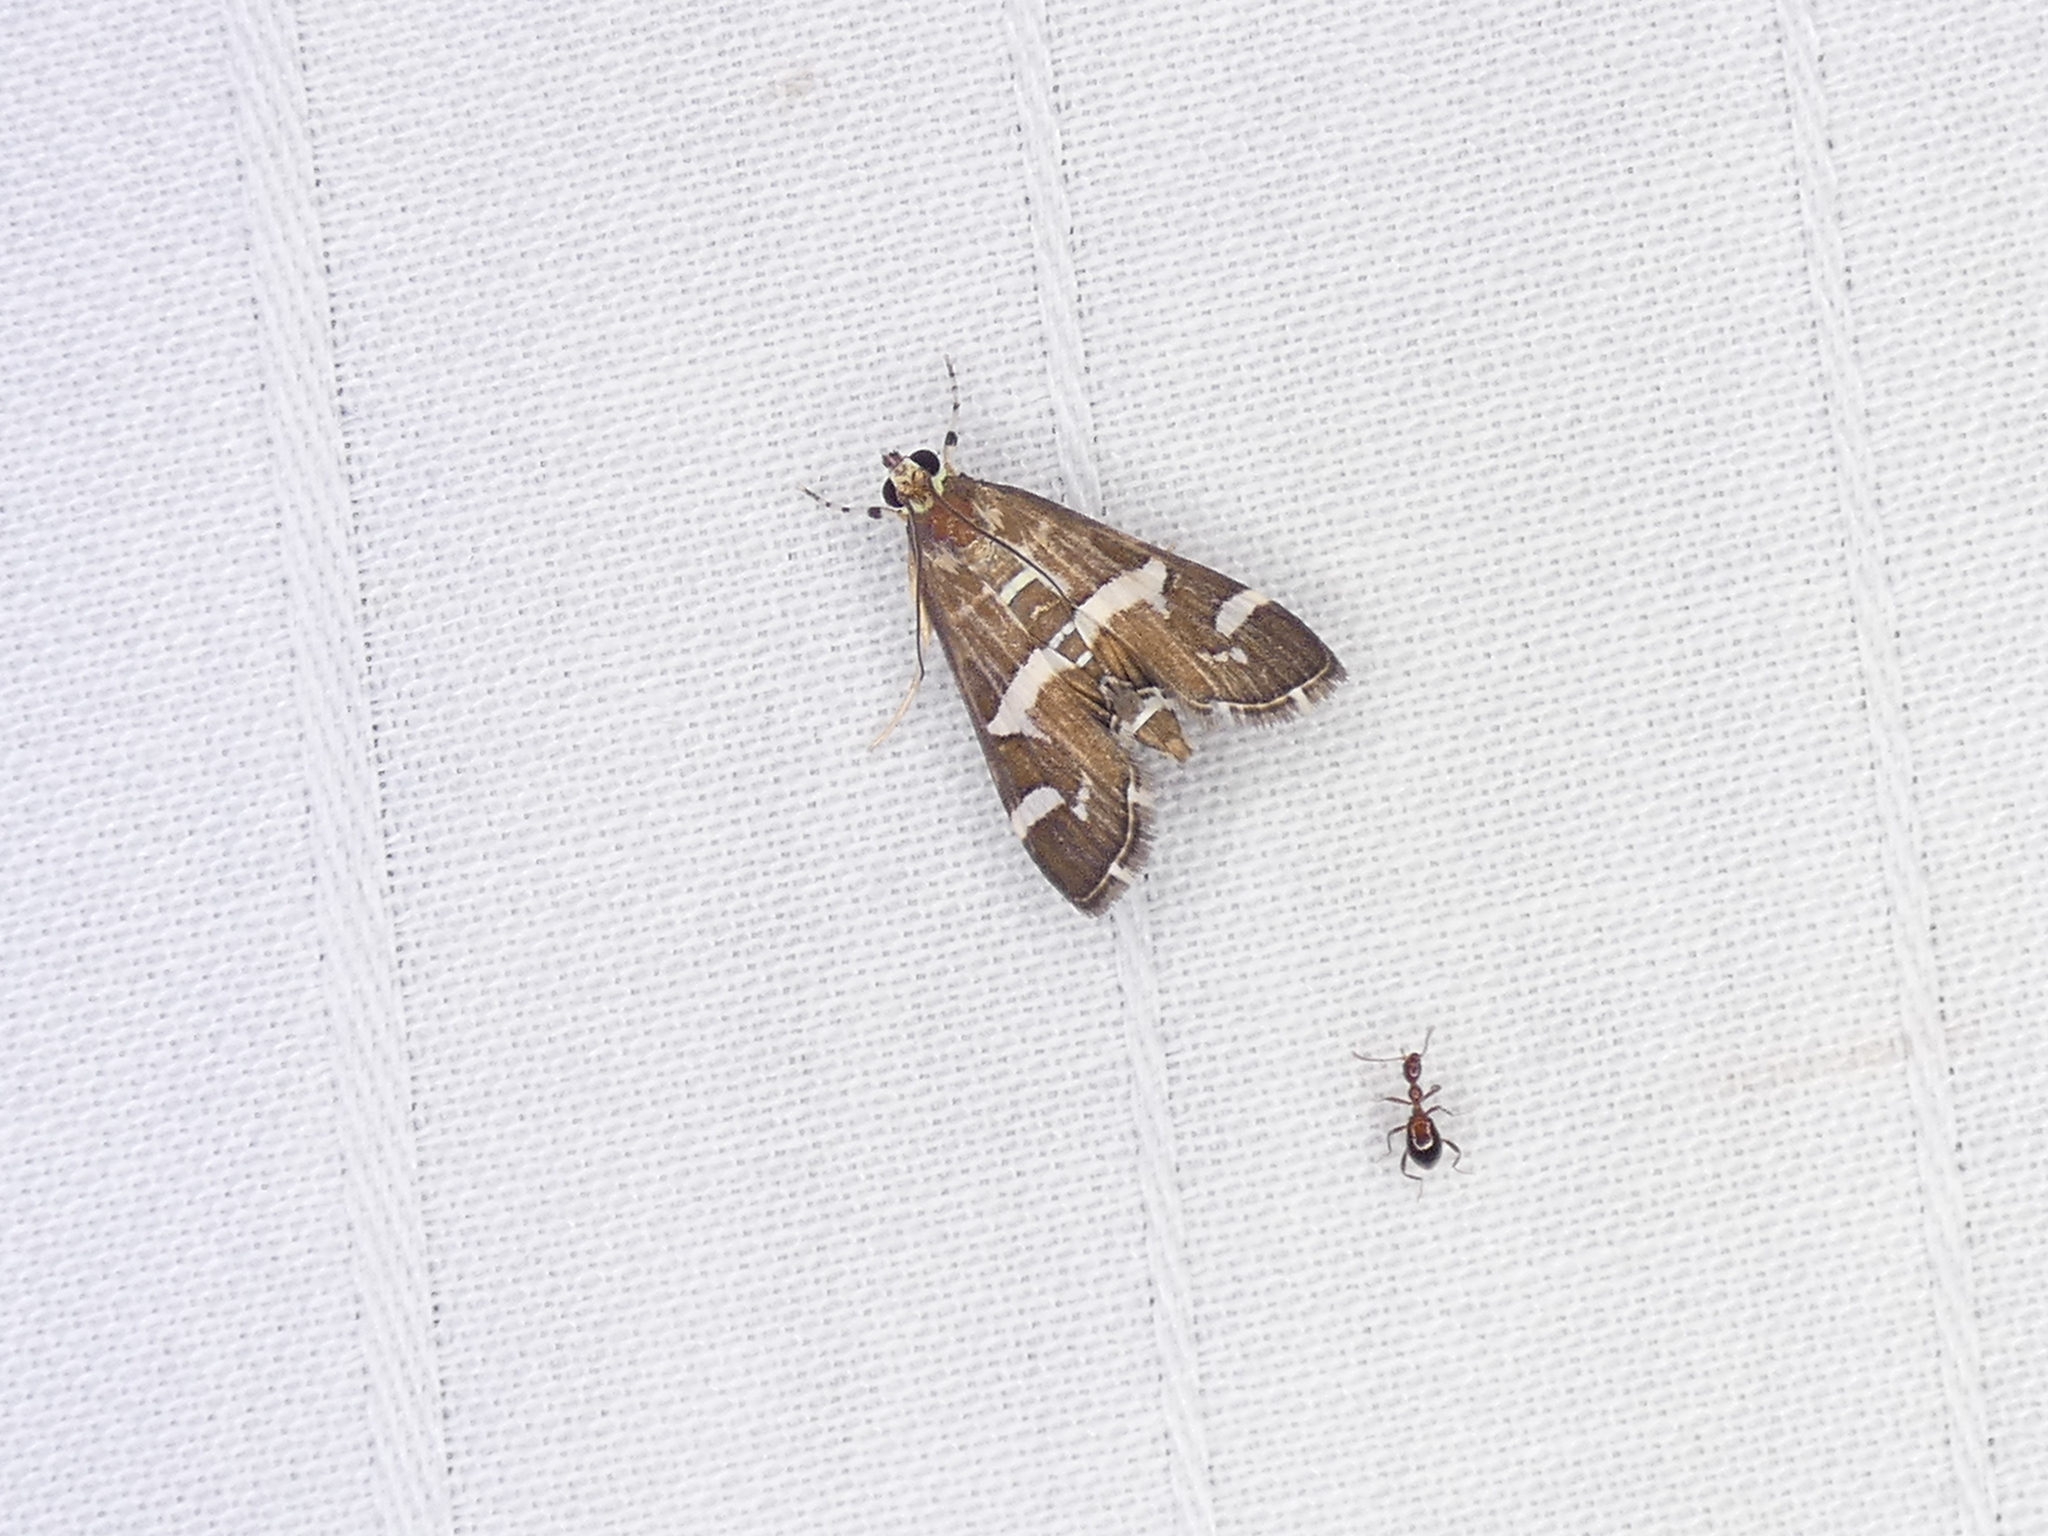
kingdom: Animalia
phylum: Arthropoda
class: Insecta
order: Lepidoptera
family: Crambidae
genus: Spoladea
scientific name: Spoladea recurvalis
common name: Beet webworm moth
